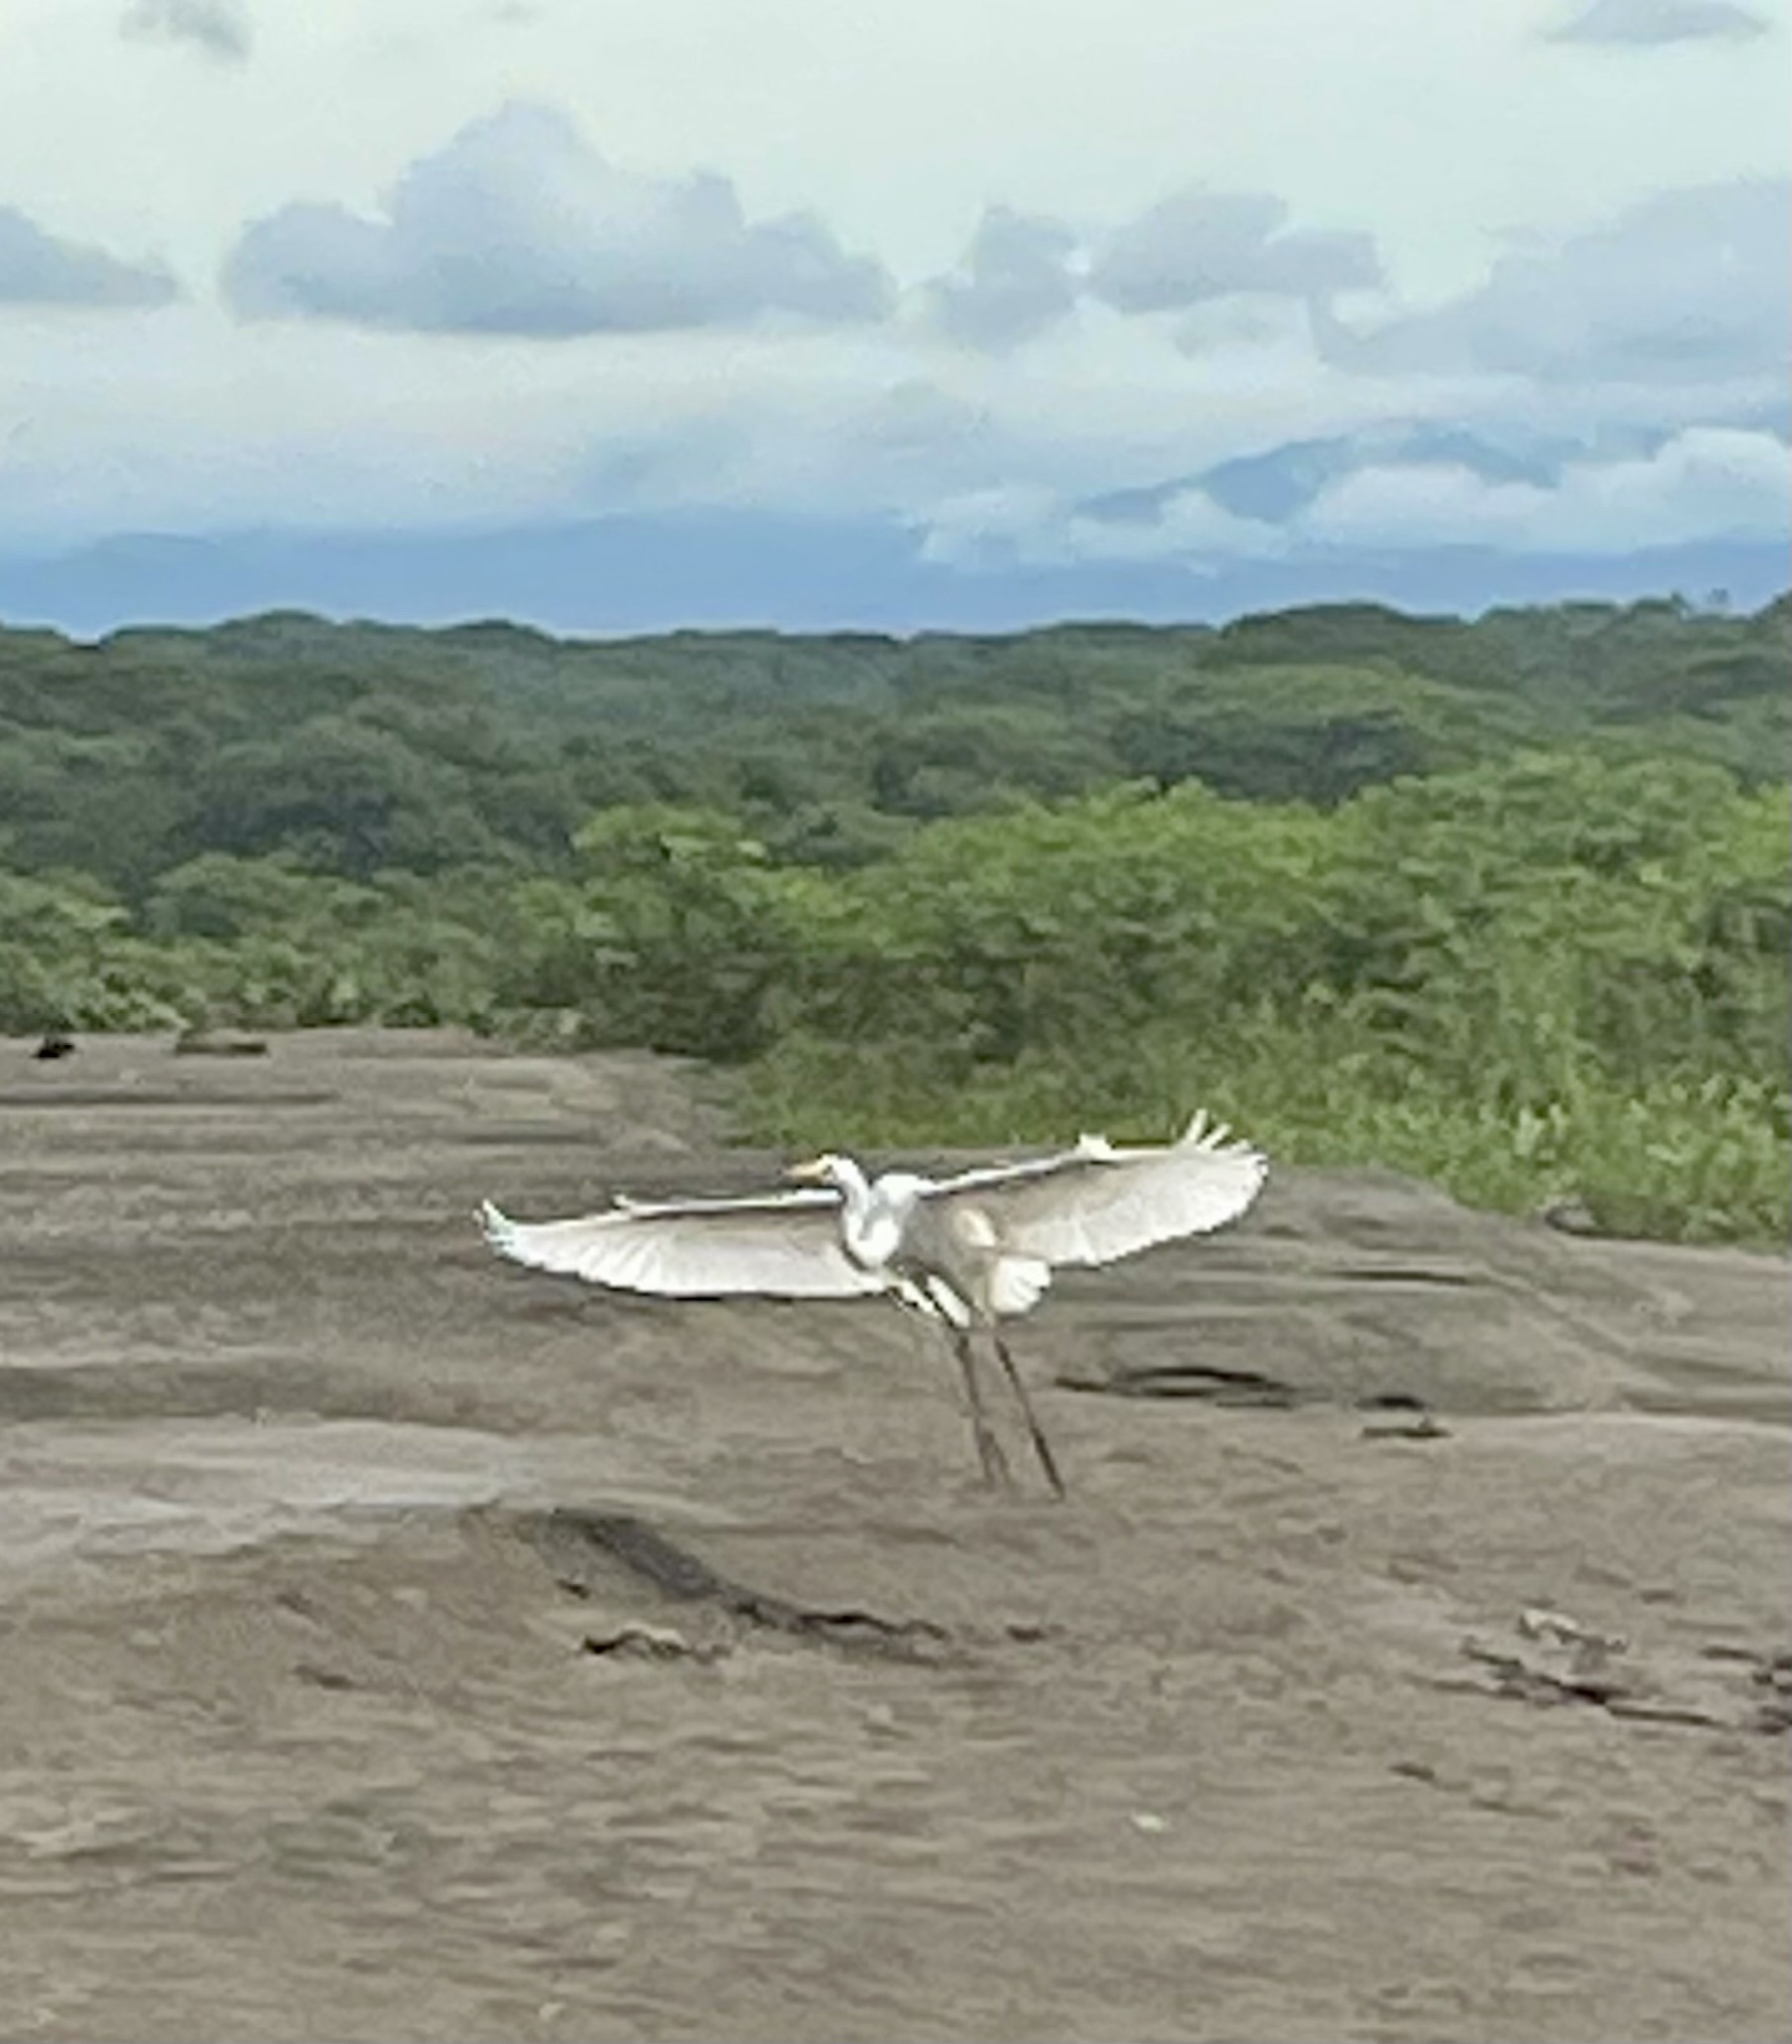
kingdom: Animalia
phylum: Chordata
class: Aves
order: Pelecaniformes
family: Ardeidae
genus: Ardea
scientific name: Ardea alba
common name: Great egret
